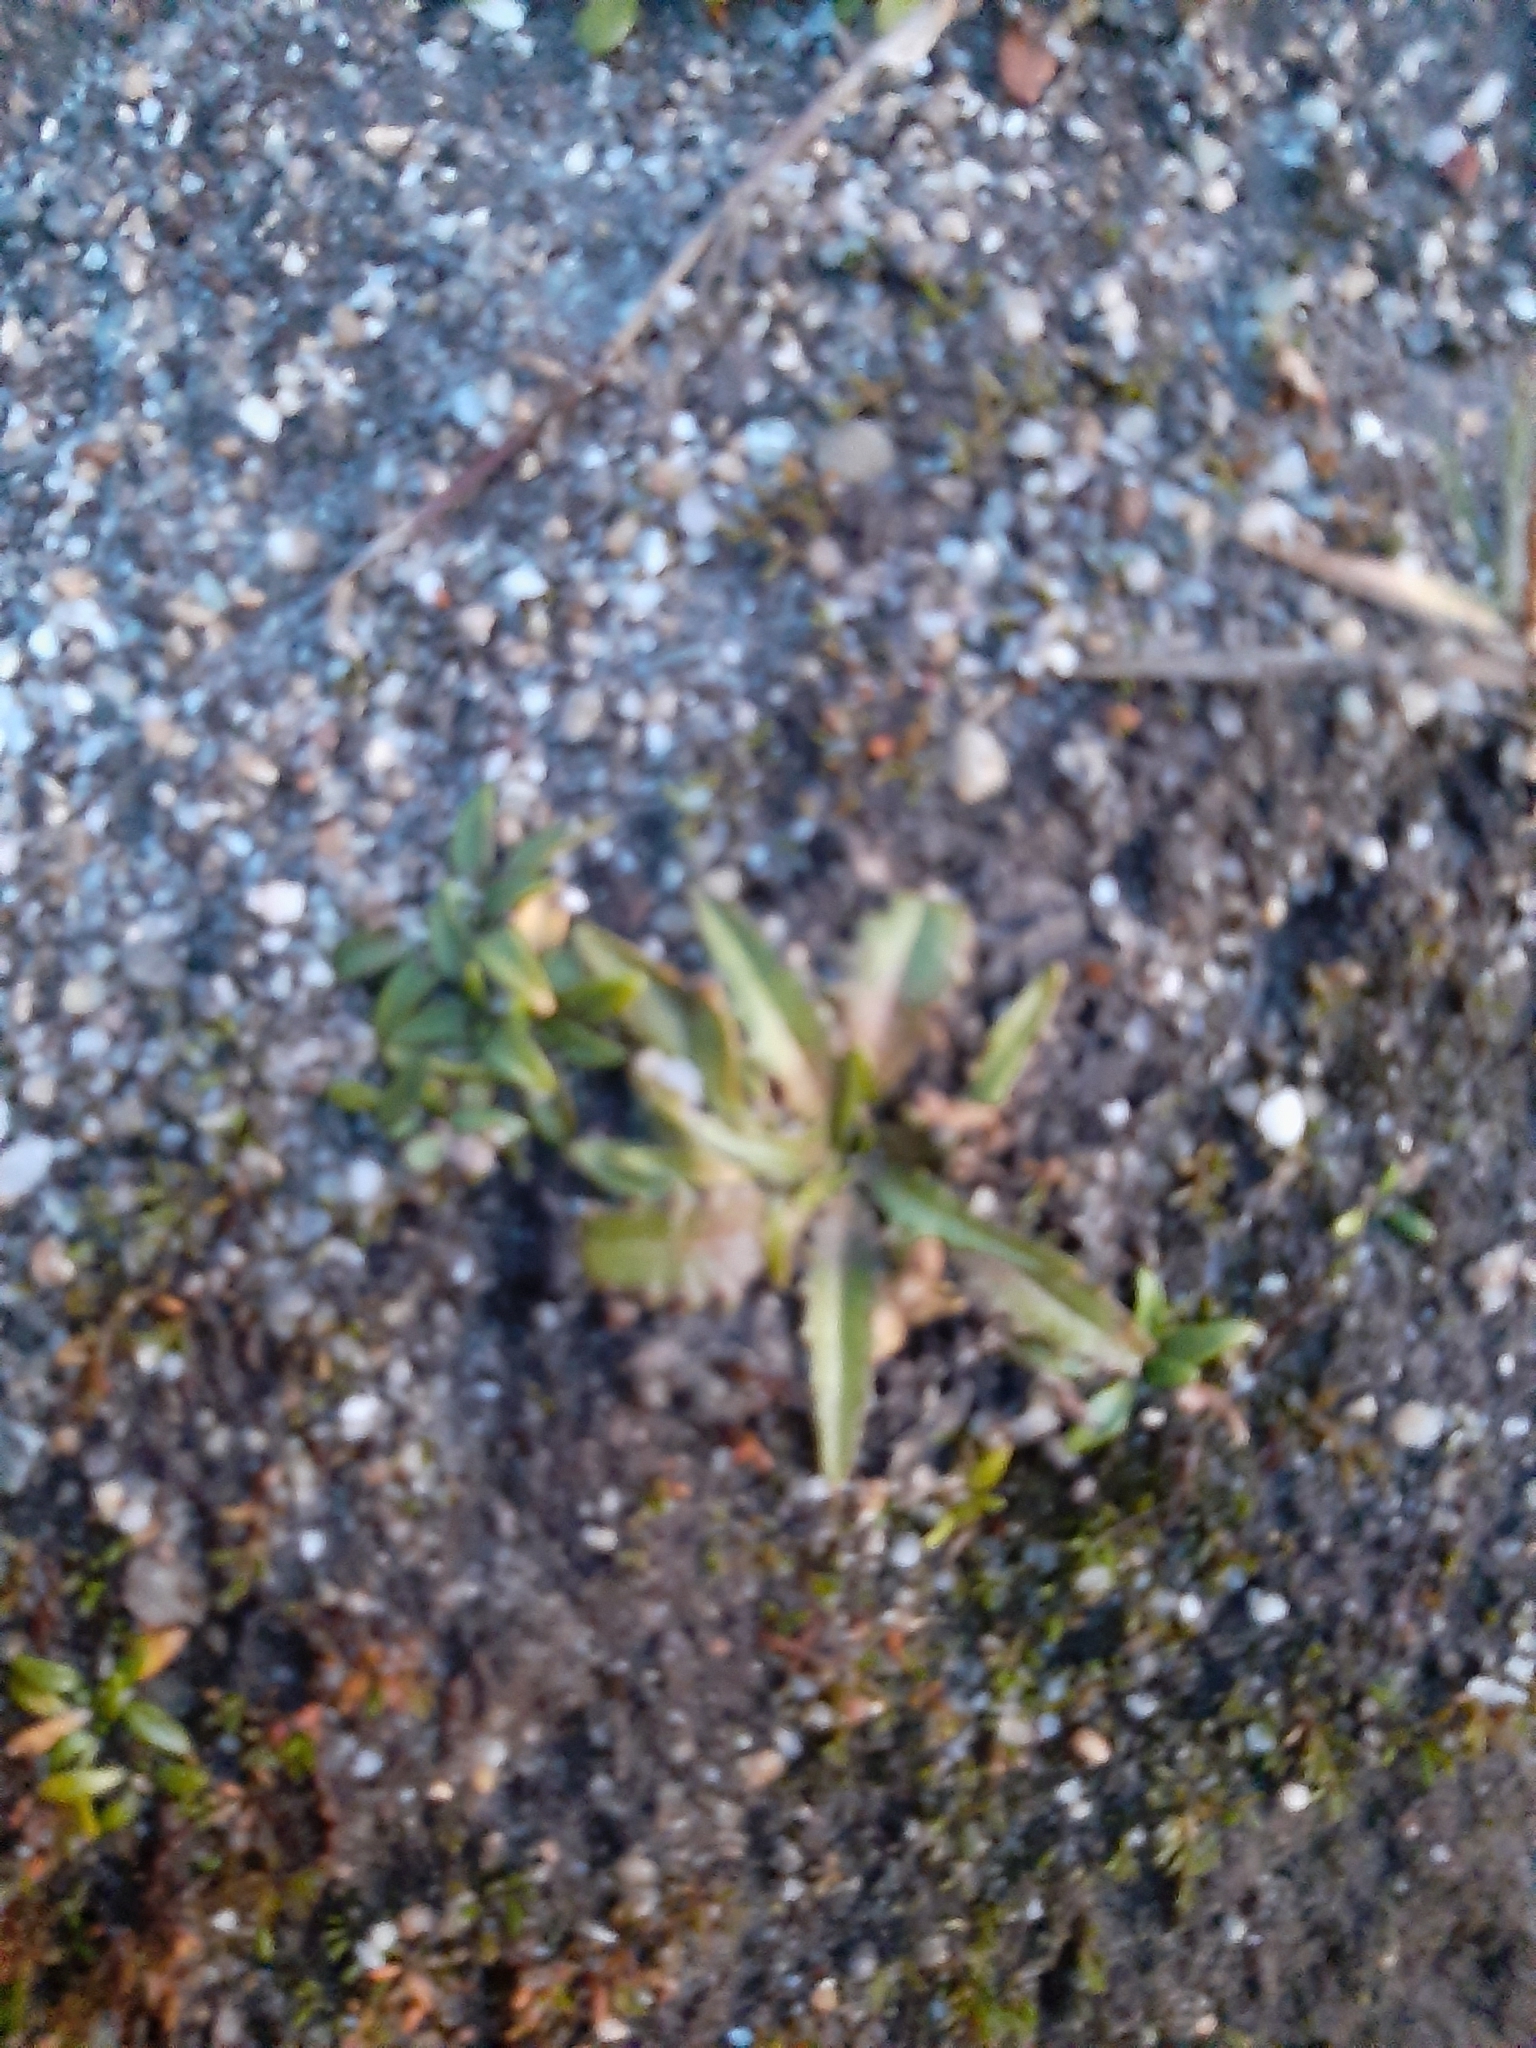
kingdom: Plantae
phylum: Tracheophyta
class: Magnoliopsida
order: Lamiales
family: Plantaginaceae
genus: Plantago
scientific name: Plantago triandra
